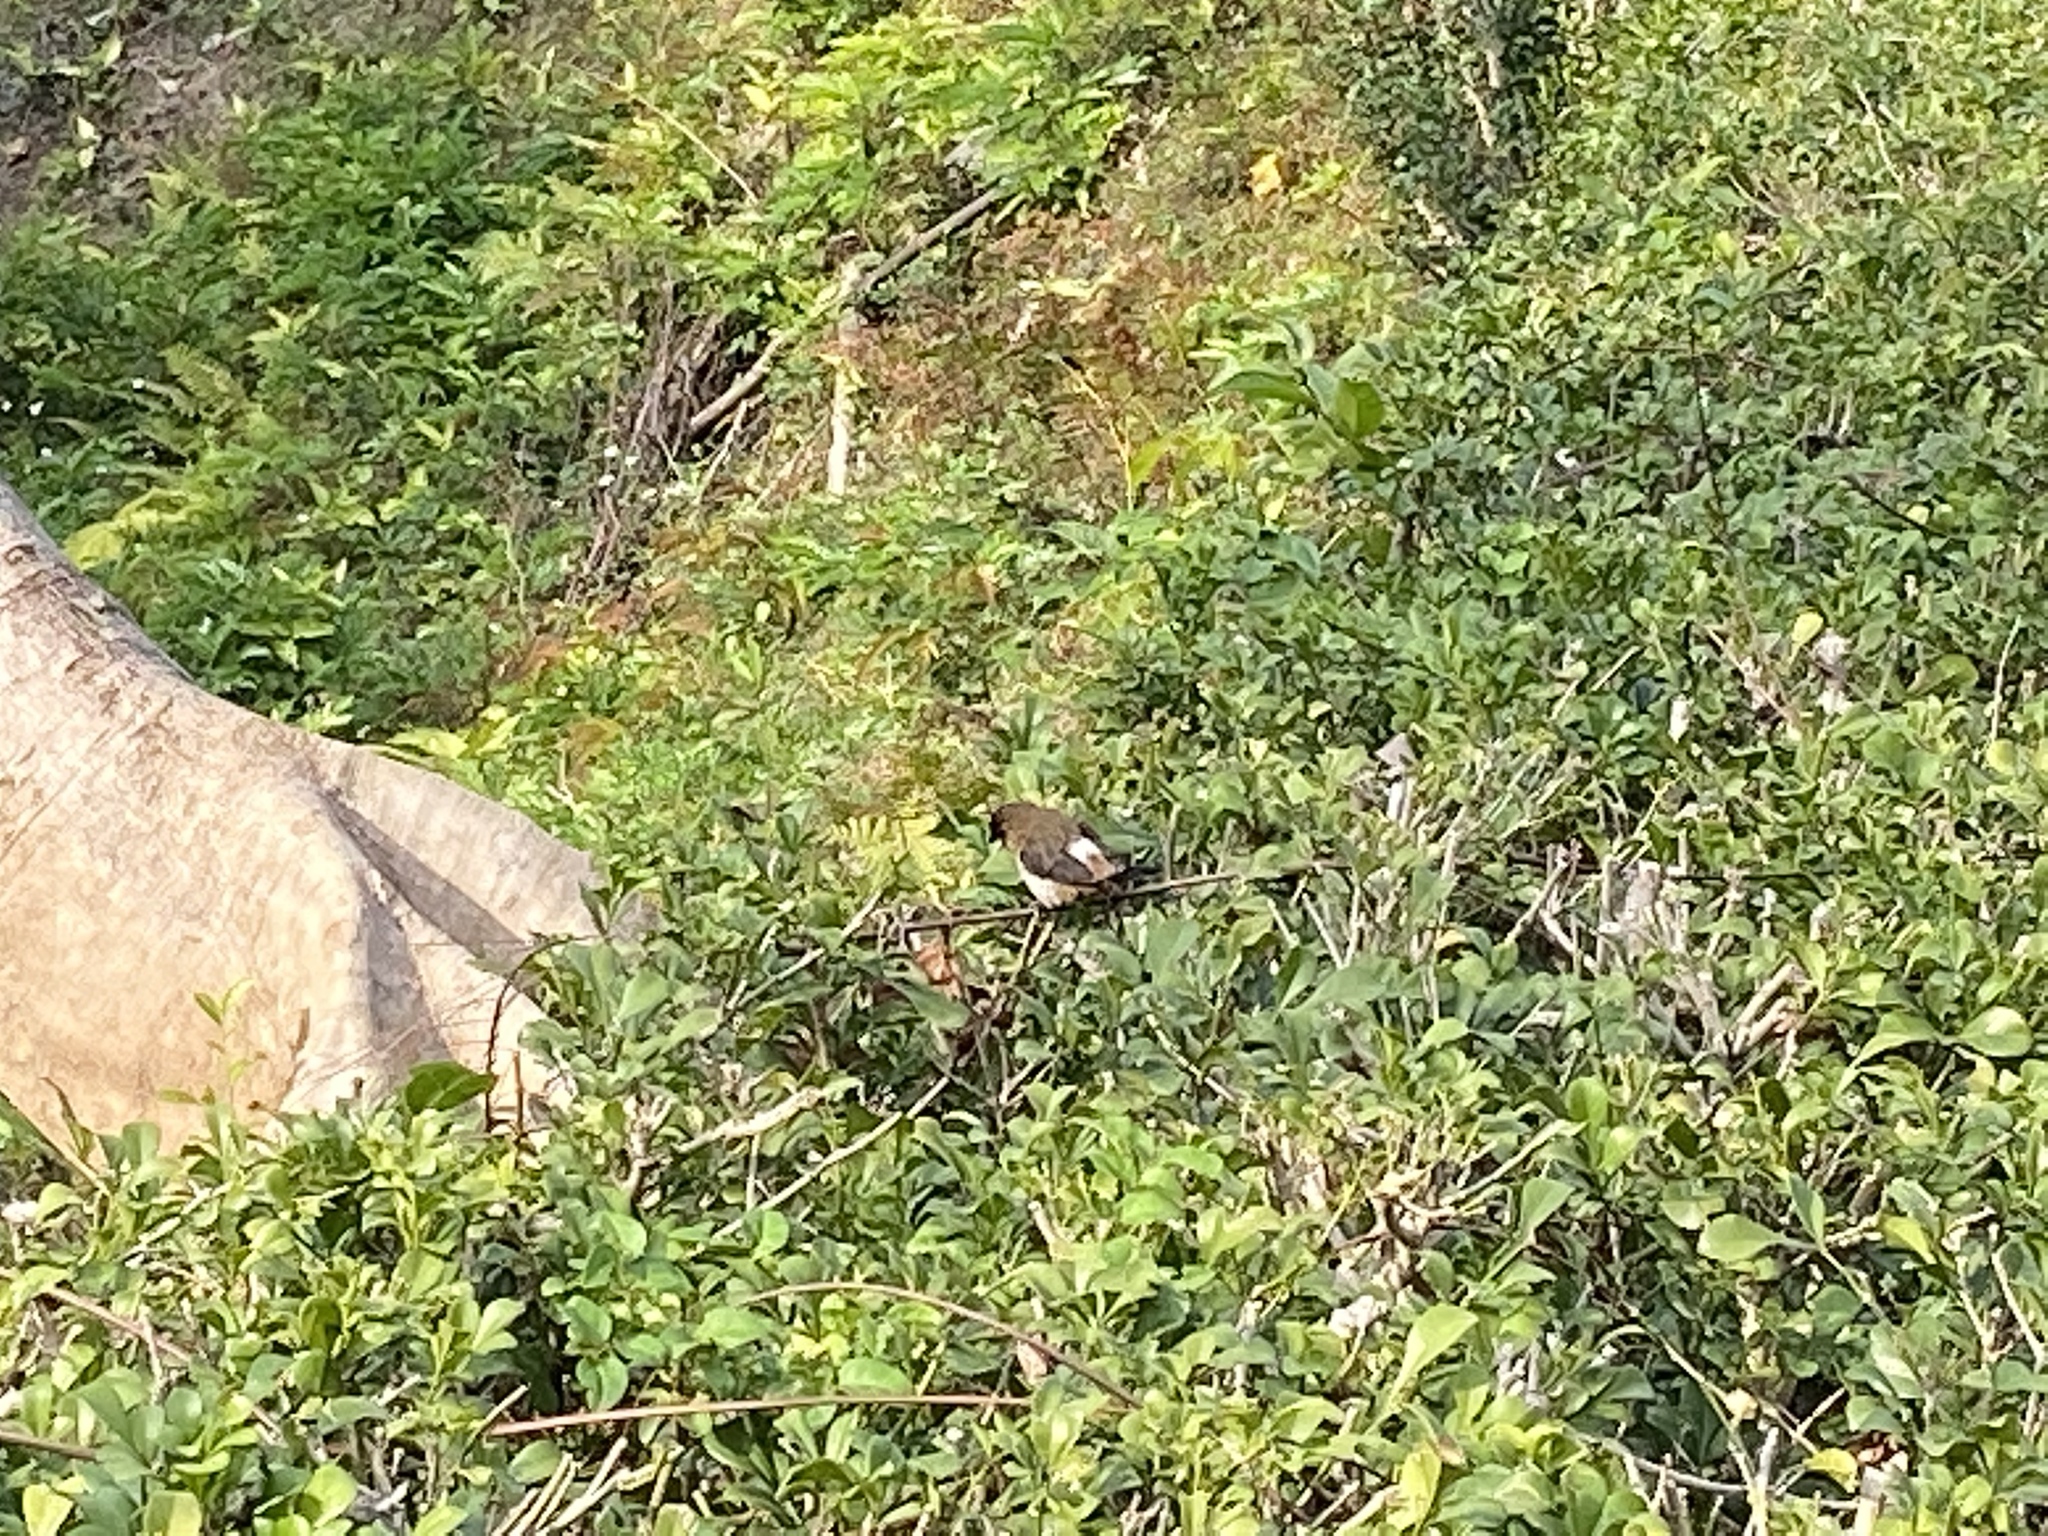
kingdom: Animalia
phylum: Chordata
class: Aves
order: Passeriformes
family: Estrildidae
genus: Lonchura
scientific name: Lonchura striata
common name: White-rumped munia
